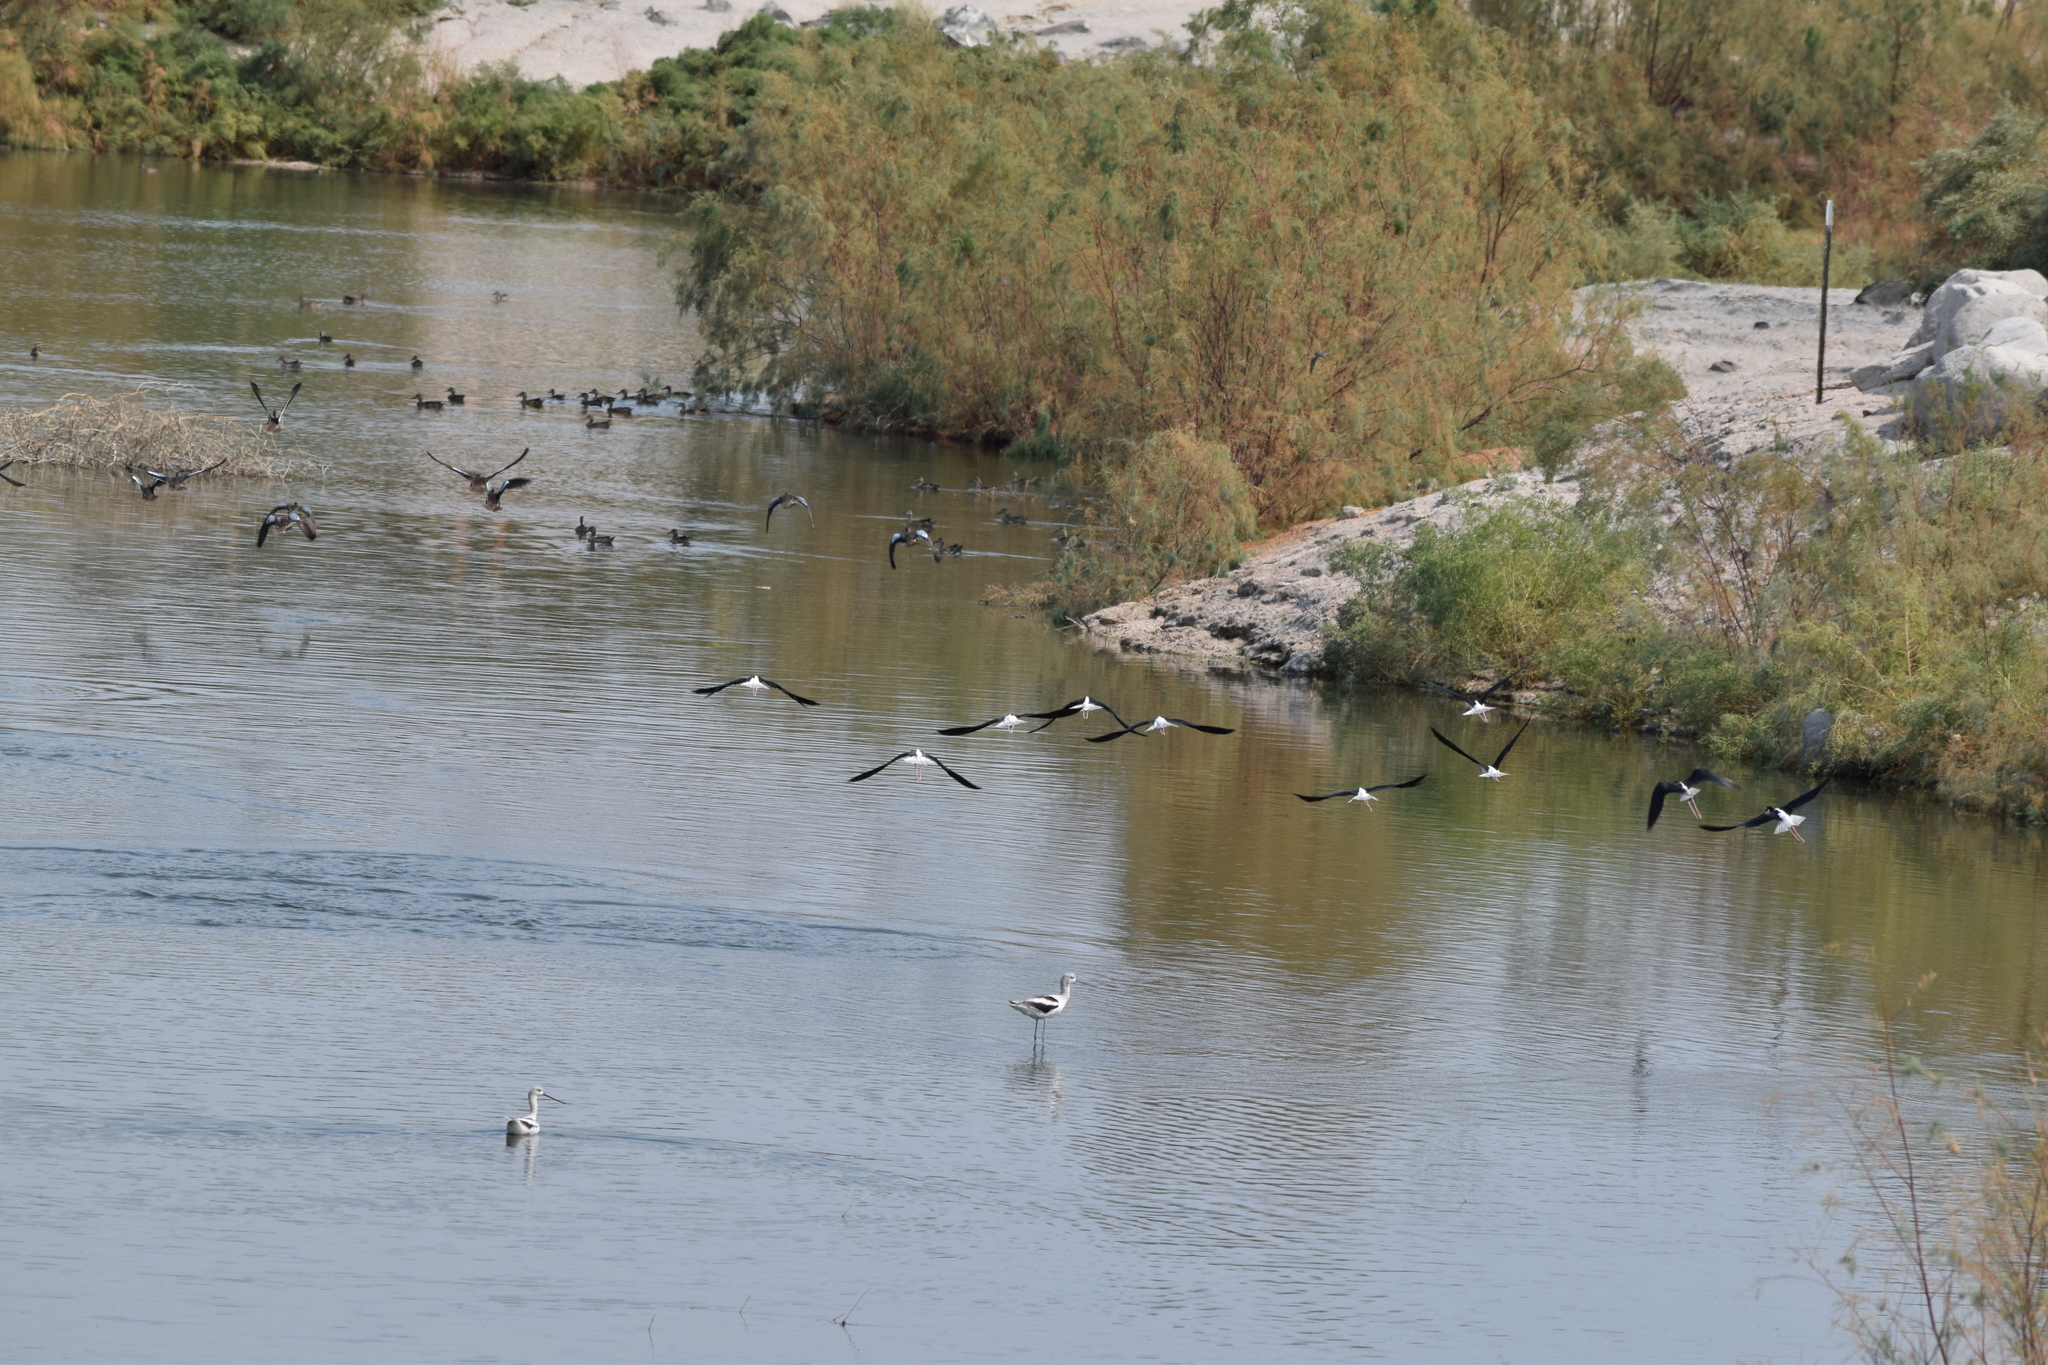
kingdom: Animalia
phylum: Chordata
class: Aves
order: Charadriiformes
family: Recurvirostridae
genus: Himantopus
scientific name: Himantopus mexicanus
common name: Black-necked stilt
